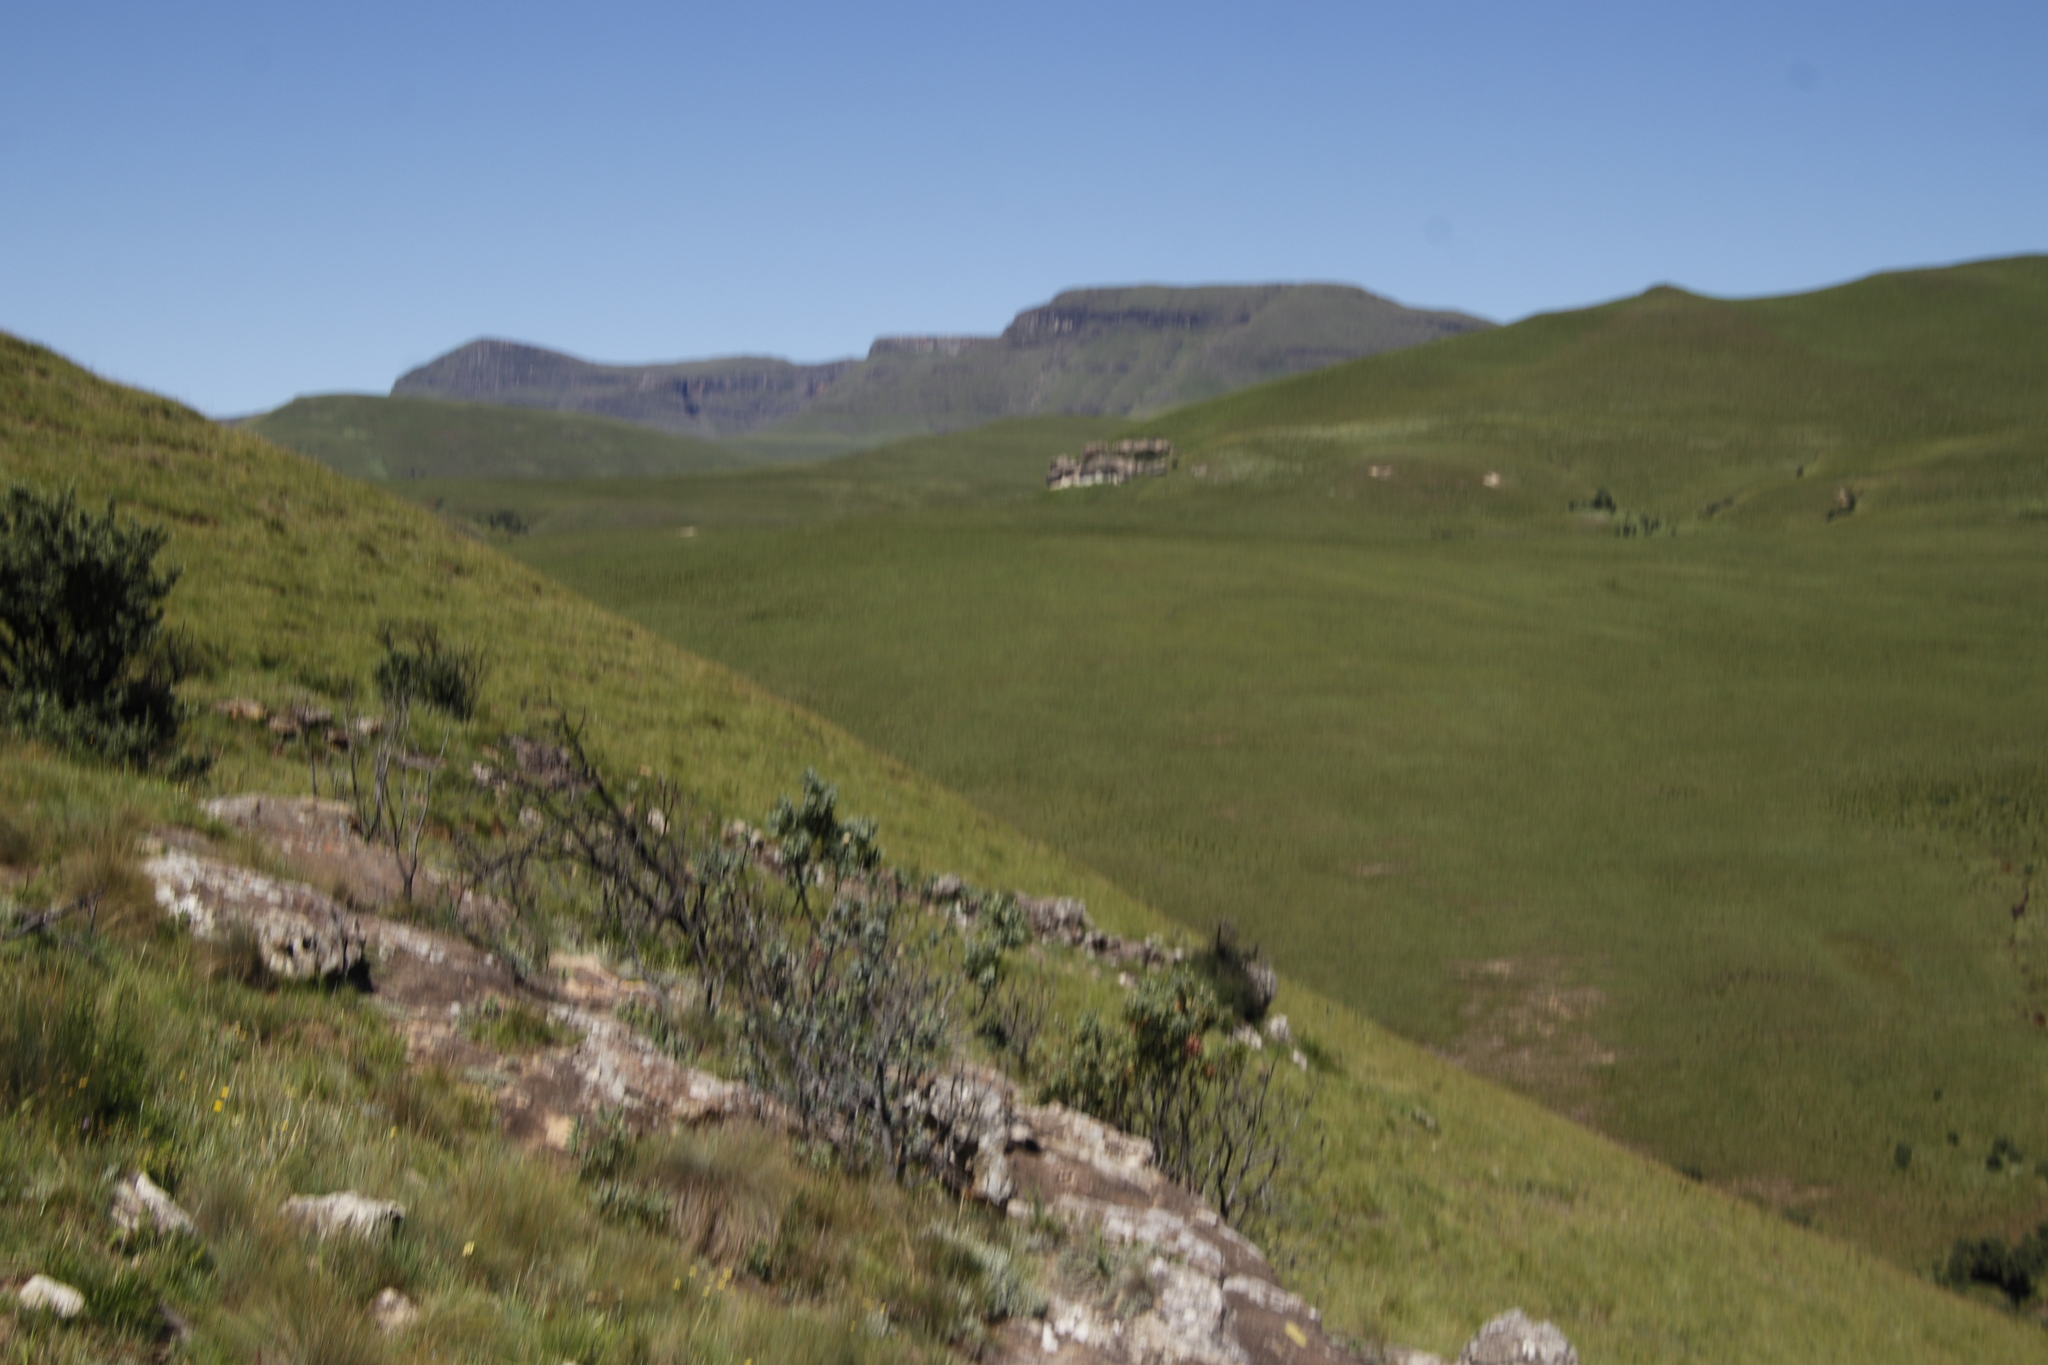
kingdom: Plantae
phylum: Tracheophyta
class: Magnoliopsida
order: Proteales
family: Proteaceae
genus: Protea
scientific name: Protea subvestita
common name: Lip-flower sugarbush
